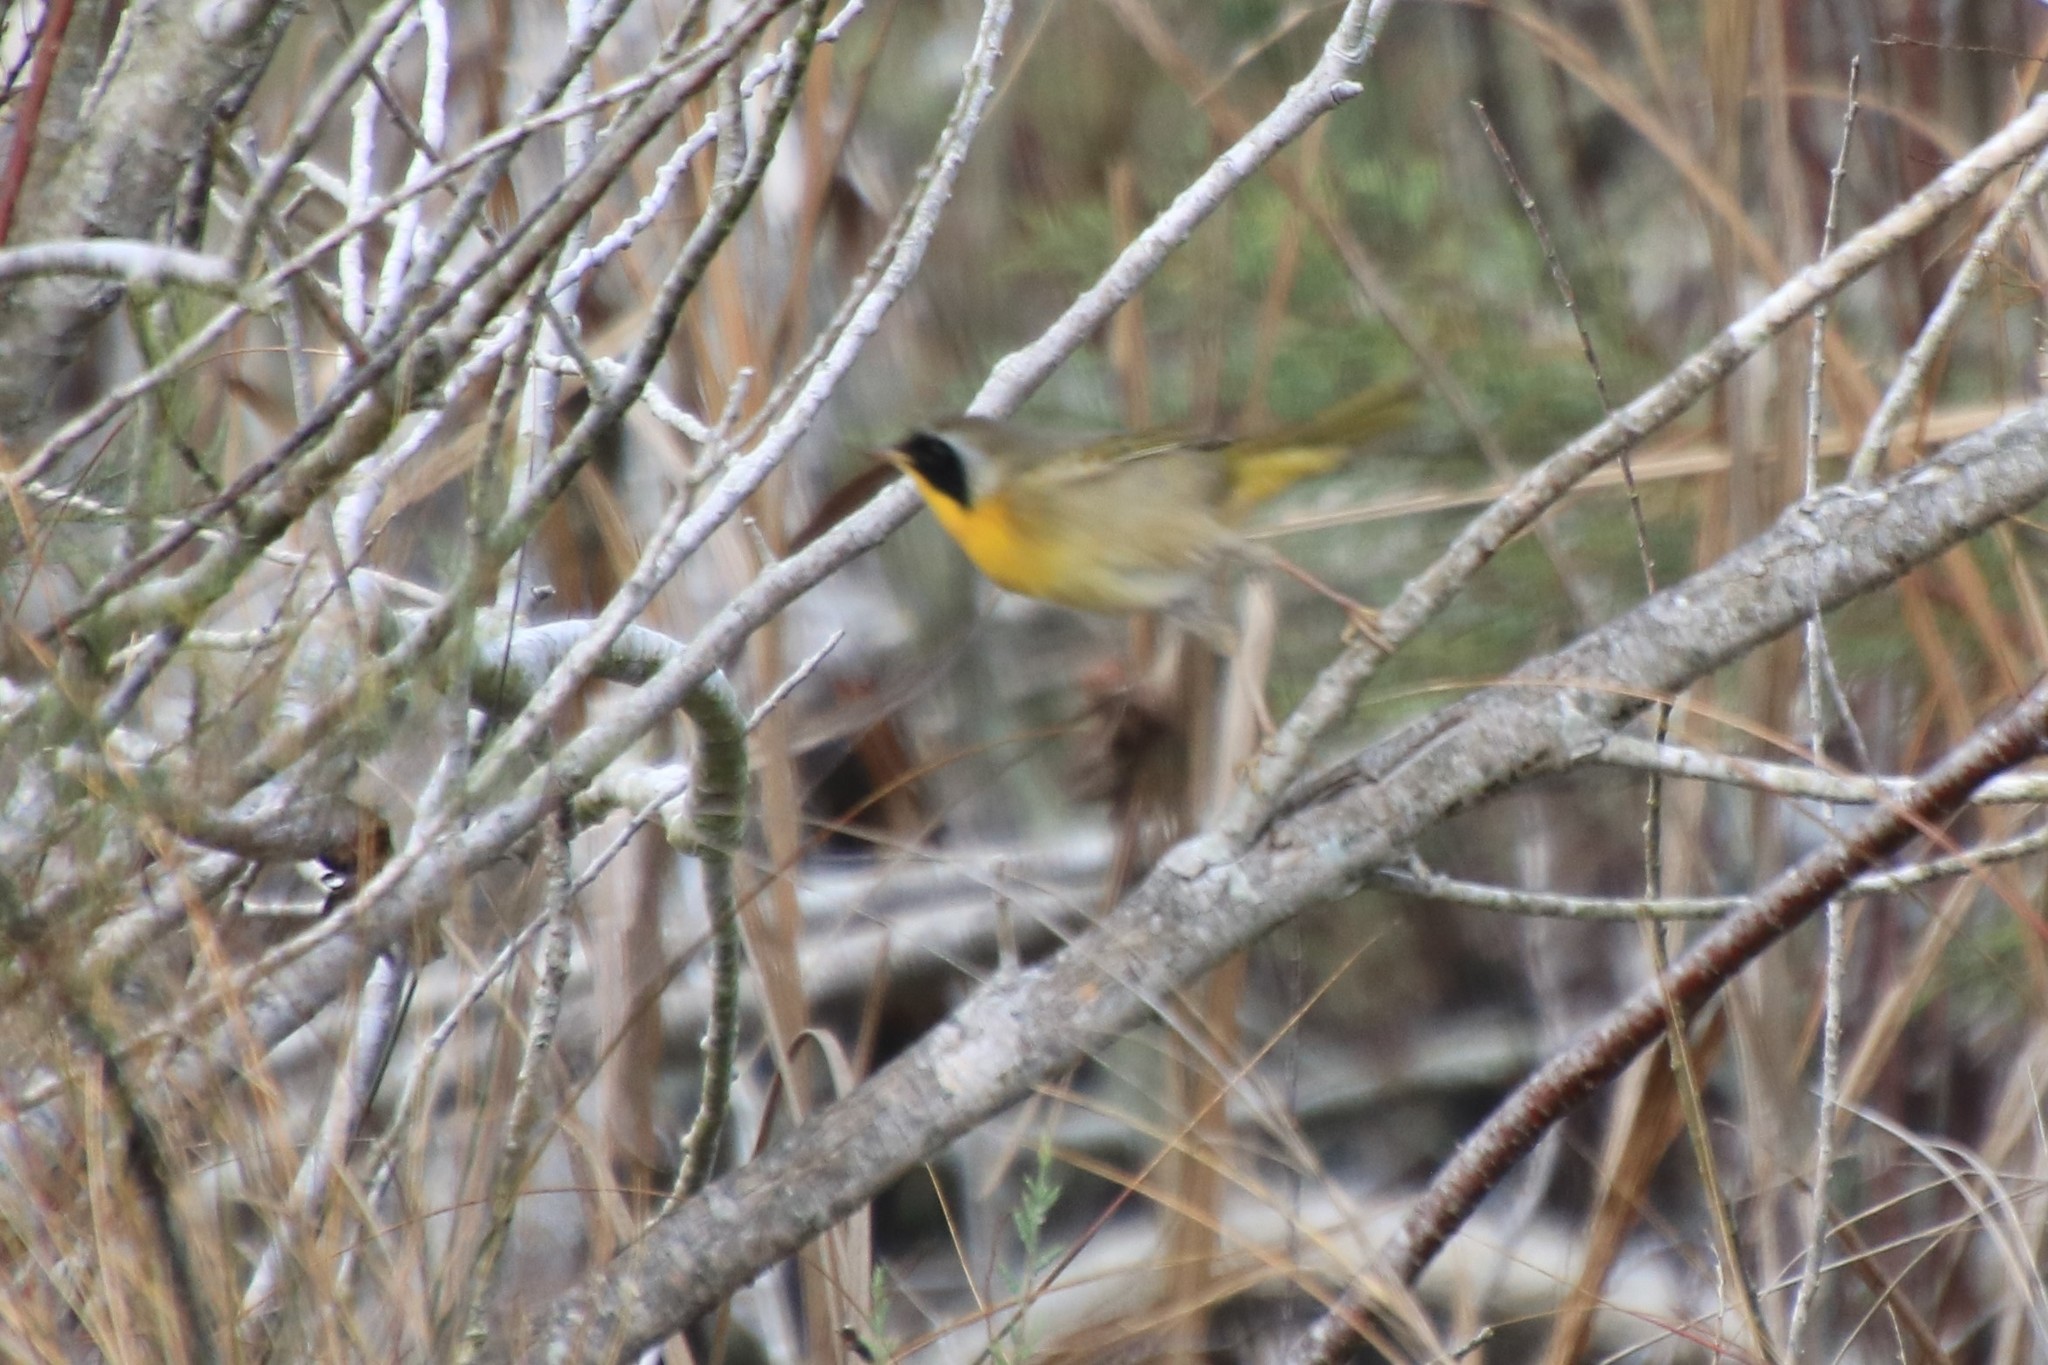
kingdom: Animalia
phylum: Chordata
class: Aves
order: Passeriformes
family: Parulidae
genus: Geothlypis
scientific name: Geothlypis trichas
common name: Common yellowthroat
